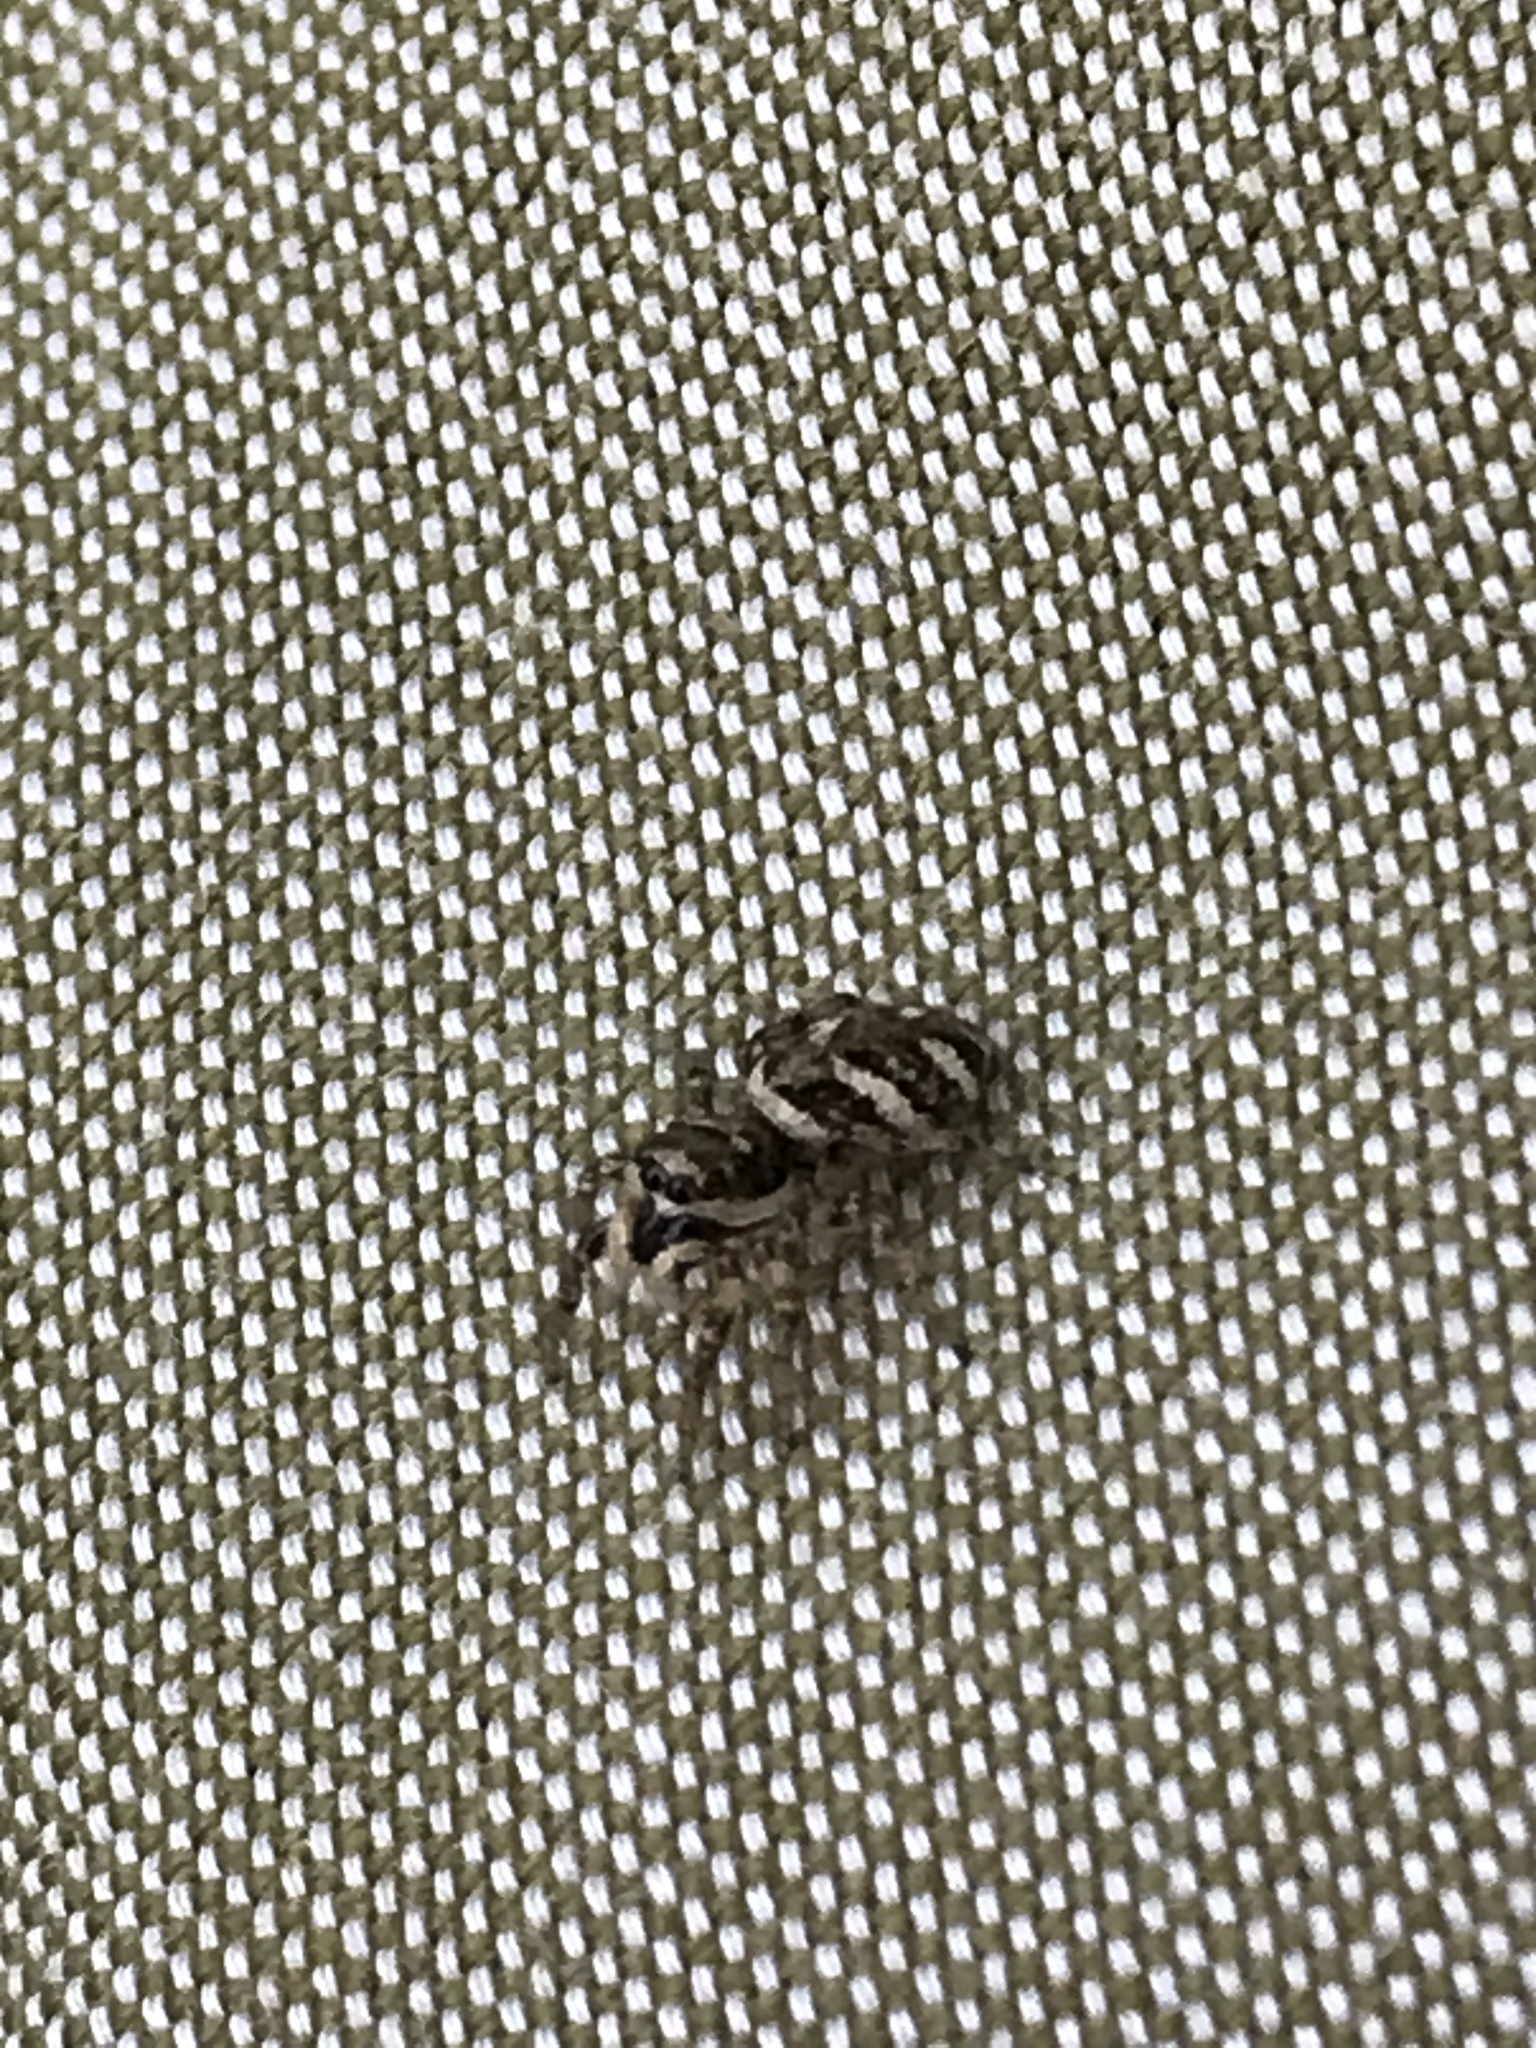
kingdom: Animalia
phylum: Arthropoda
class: Arachnida
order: Araneae
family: Salticidae
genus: Salticus
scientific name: Salticus scenicus
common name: Zebra jumper
